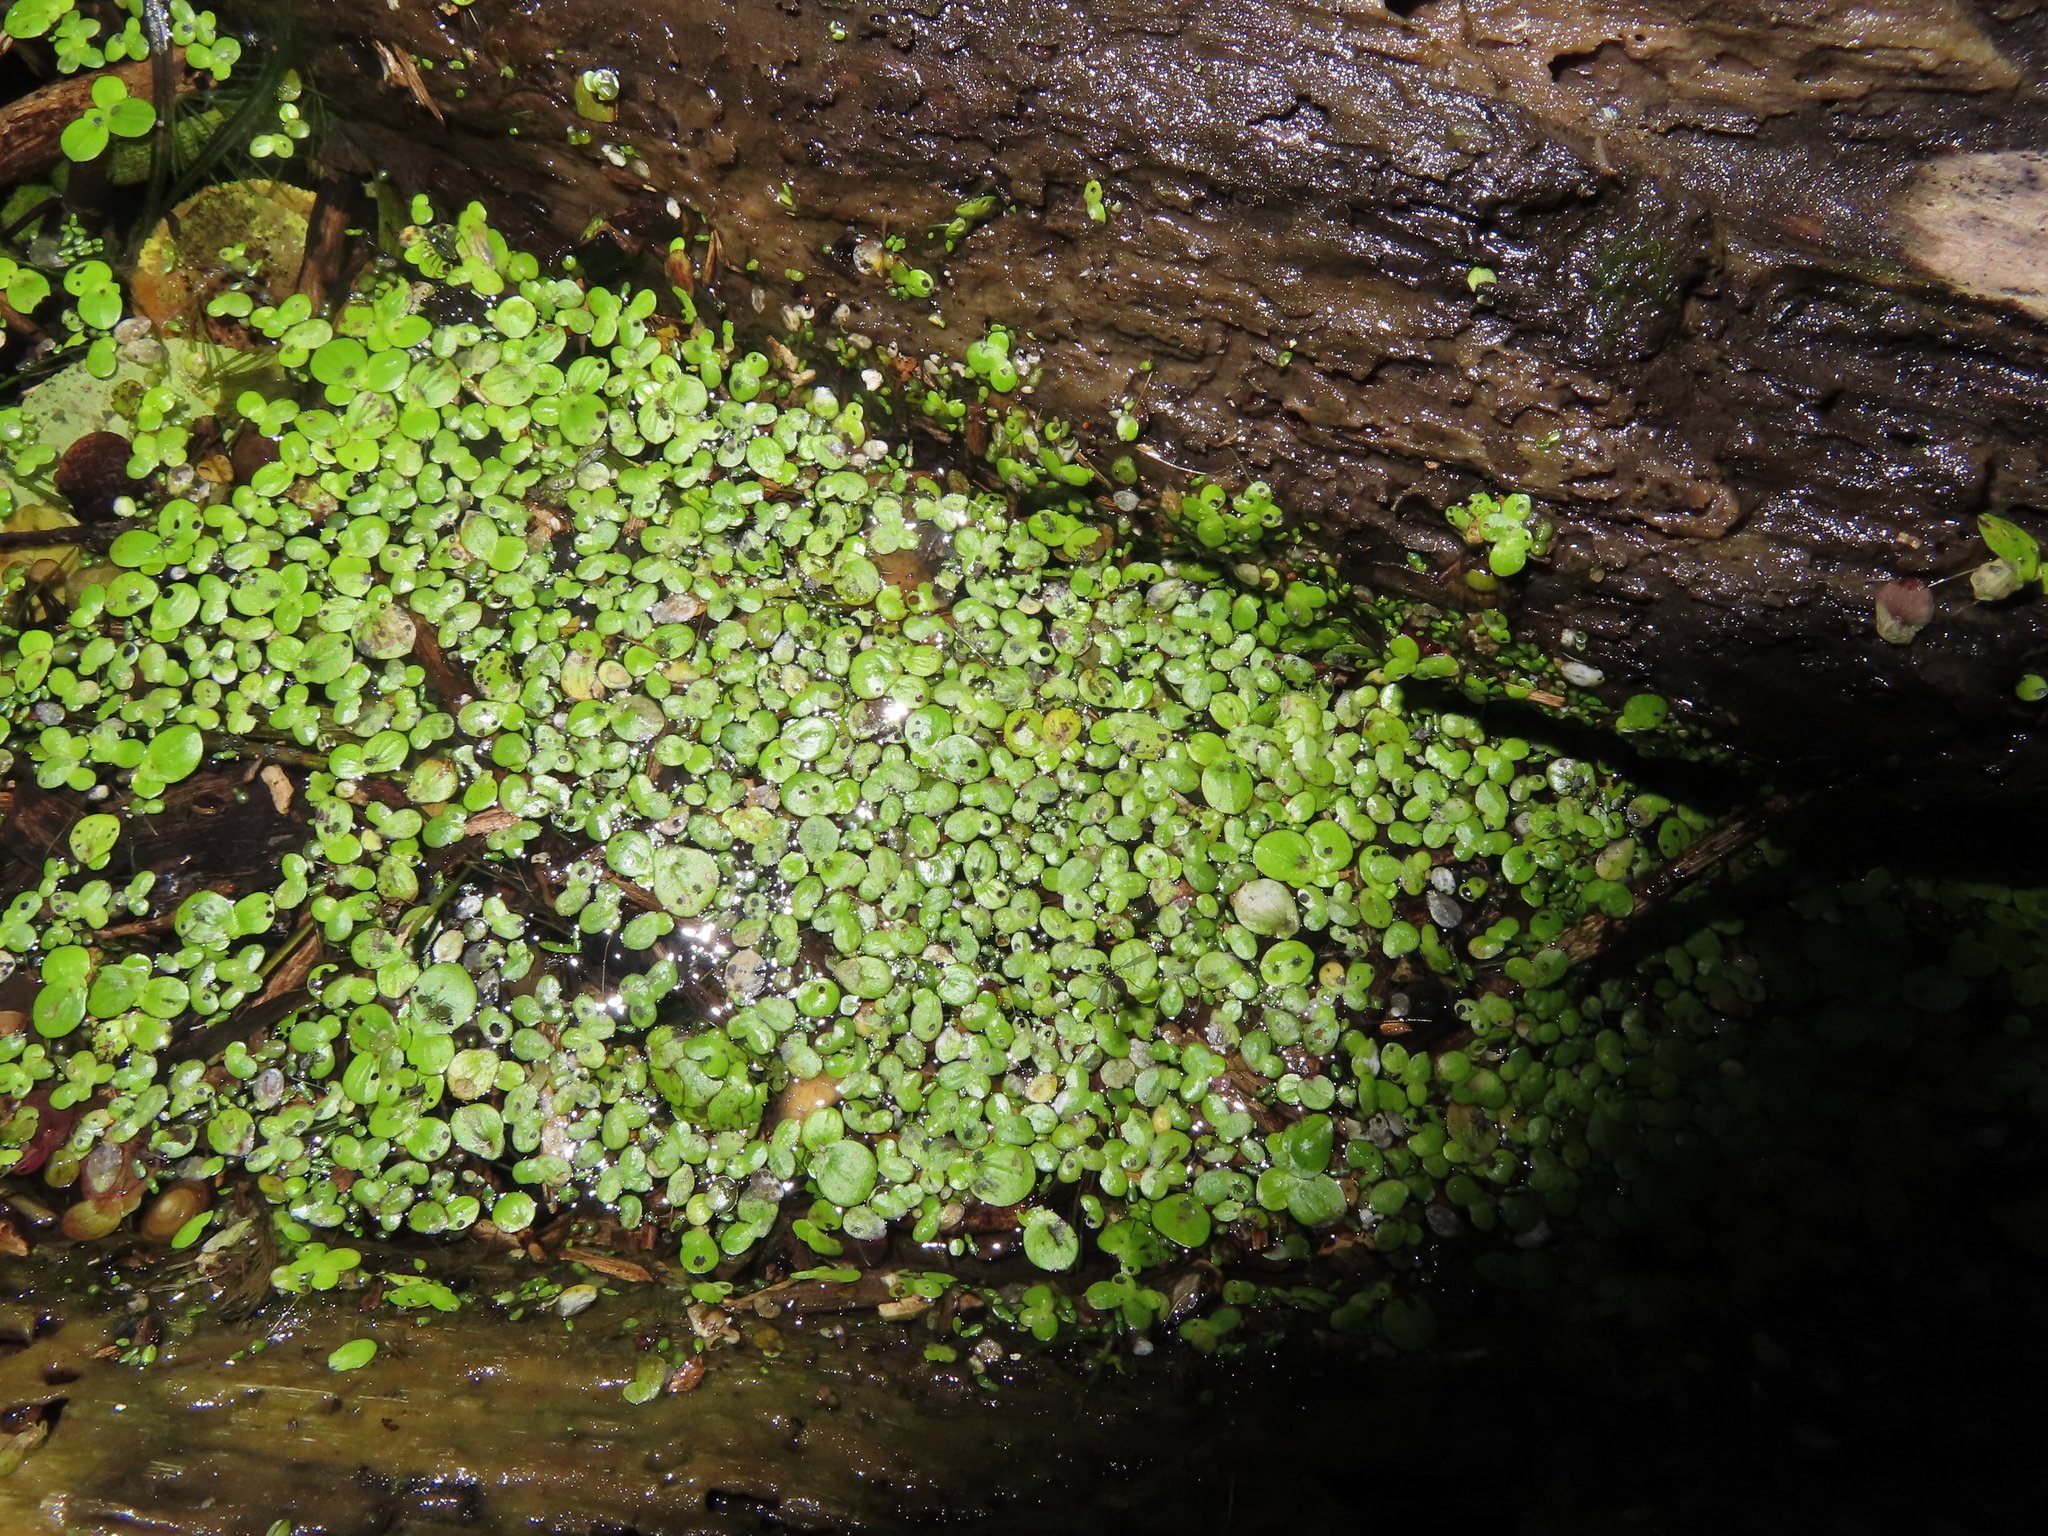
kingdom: Plantae
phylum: Tracheophyta
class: Liliopsida
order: Alismatales
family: Araceae
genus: Spirodela
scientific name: Spirodela polyrhiza
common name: Great duckweed
